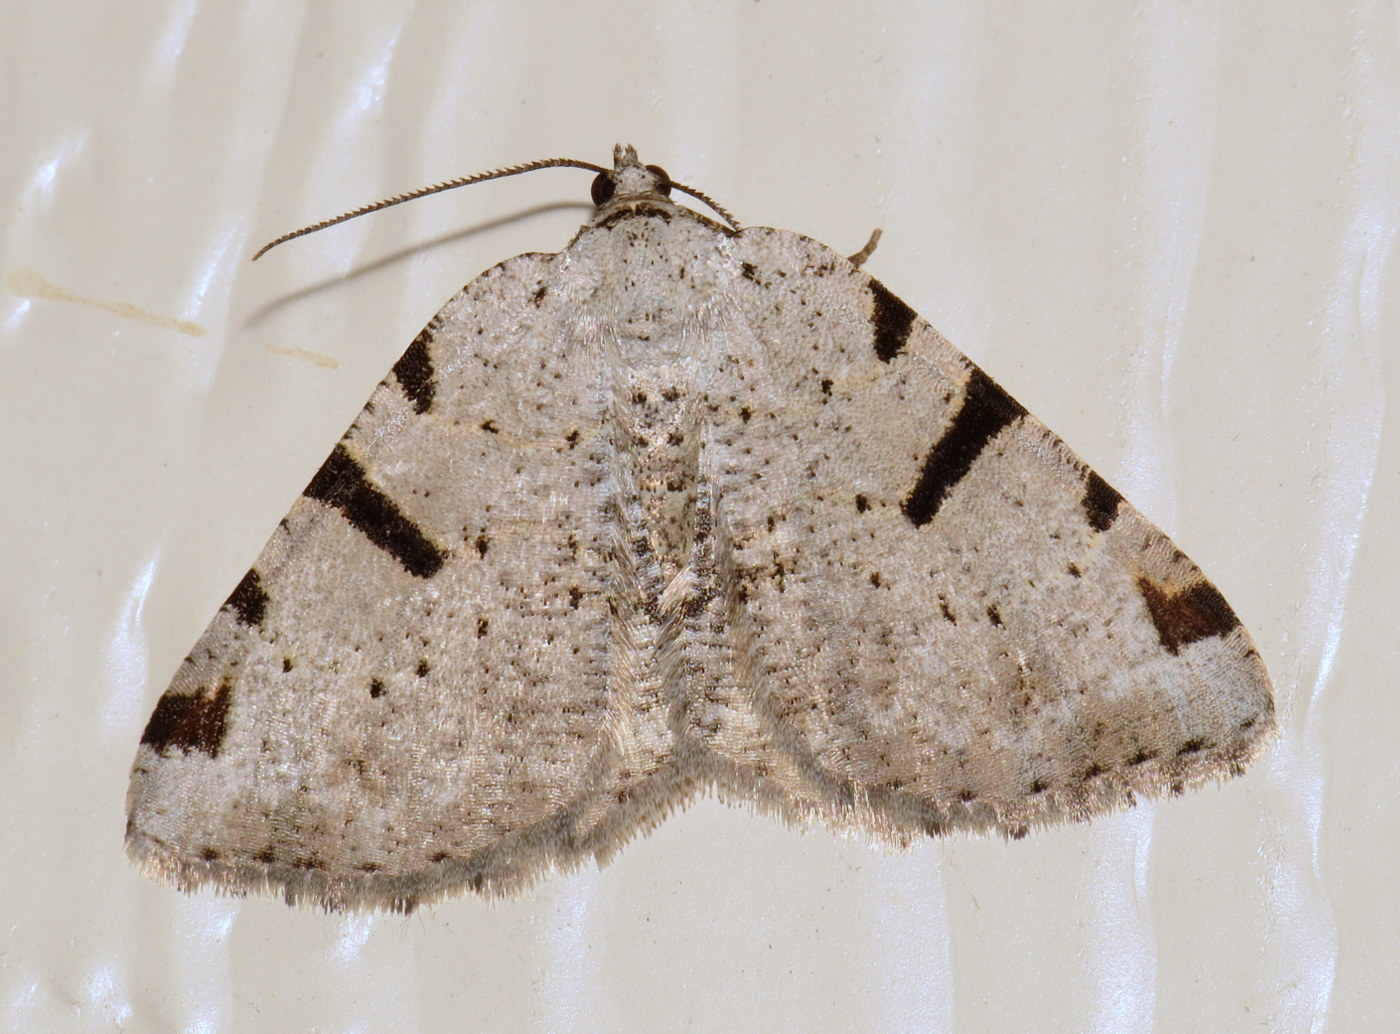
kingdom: Animalia
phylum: Arthropoda
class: Insecta
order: Lepidoptera
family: Geometridae
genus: Macaria
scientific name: Macaria subcessaria
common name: Barred angle
